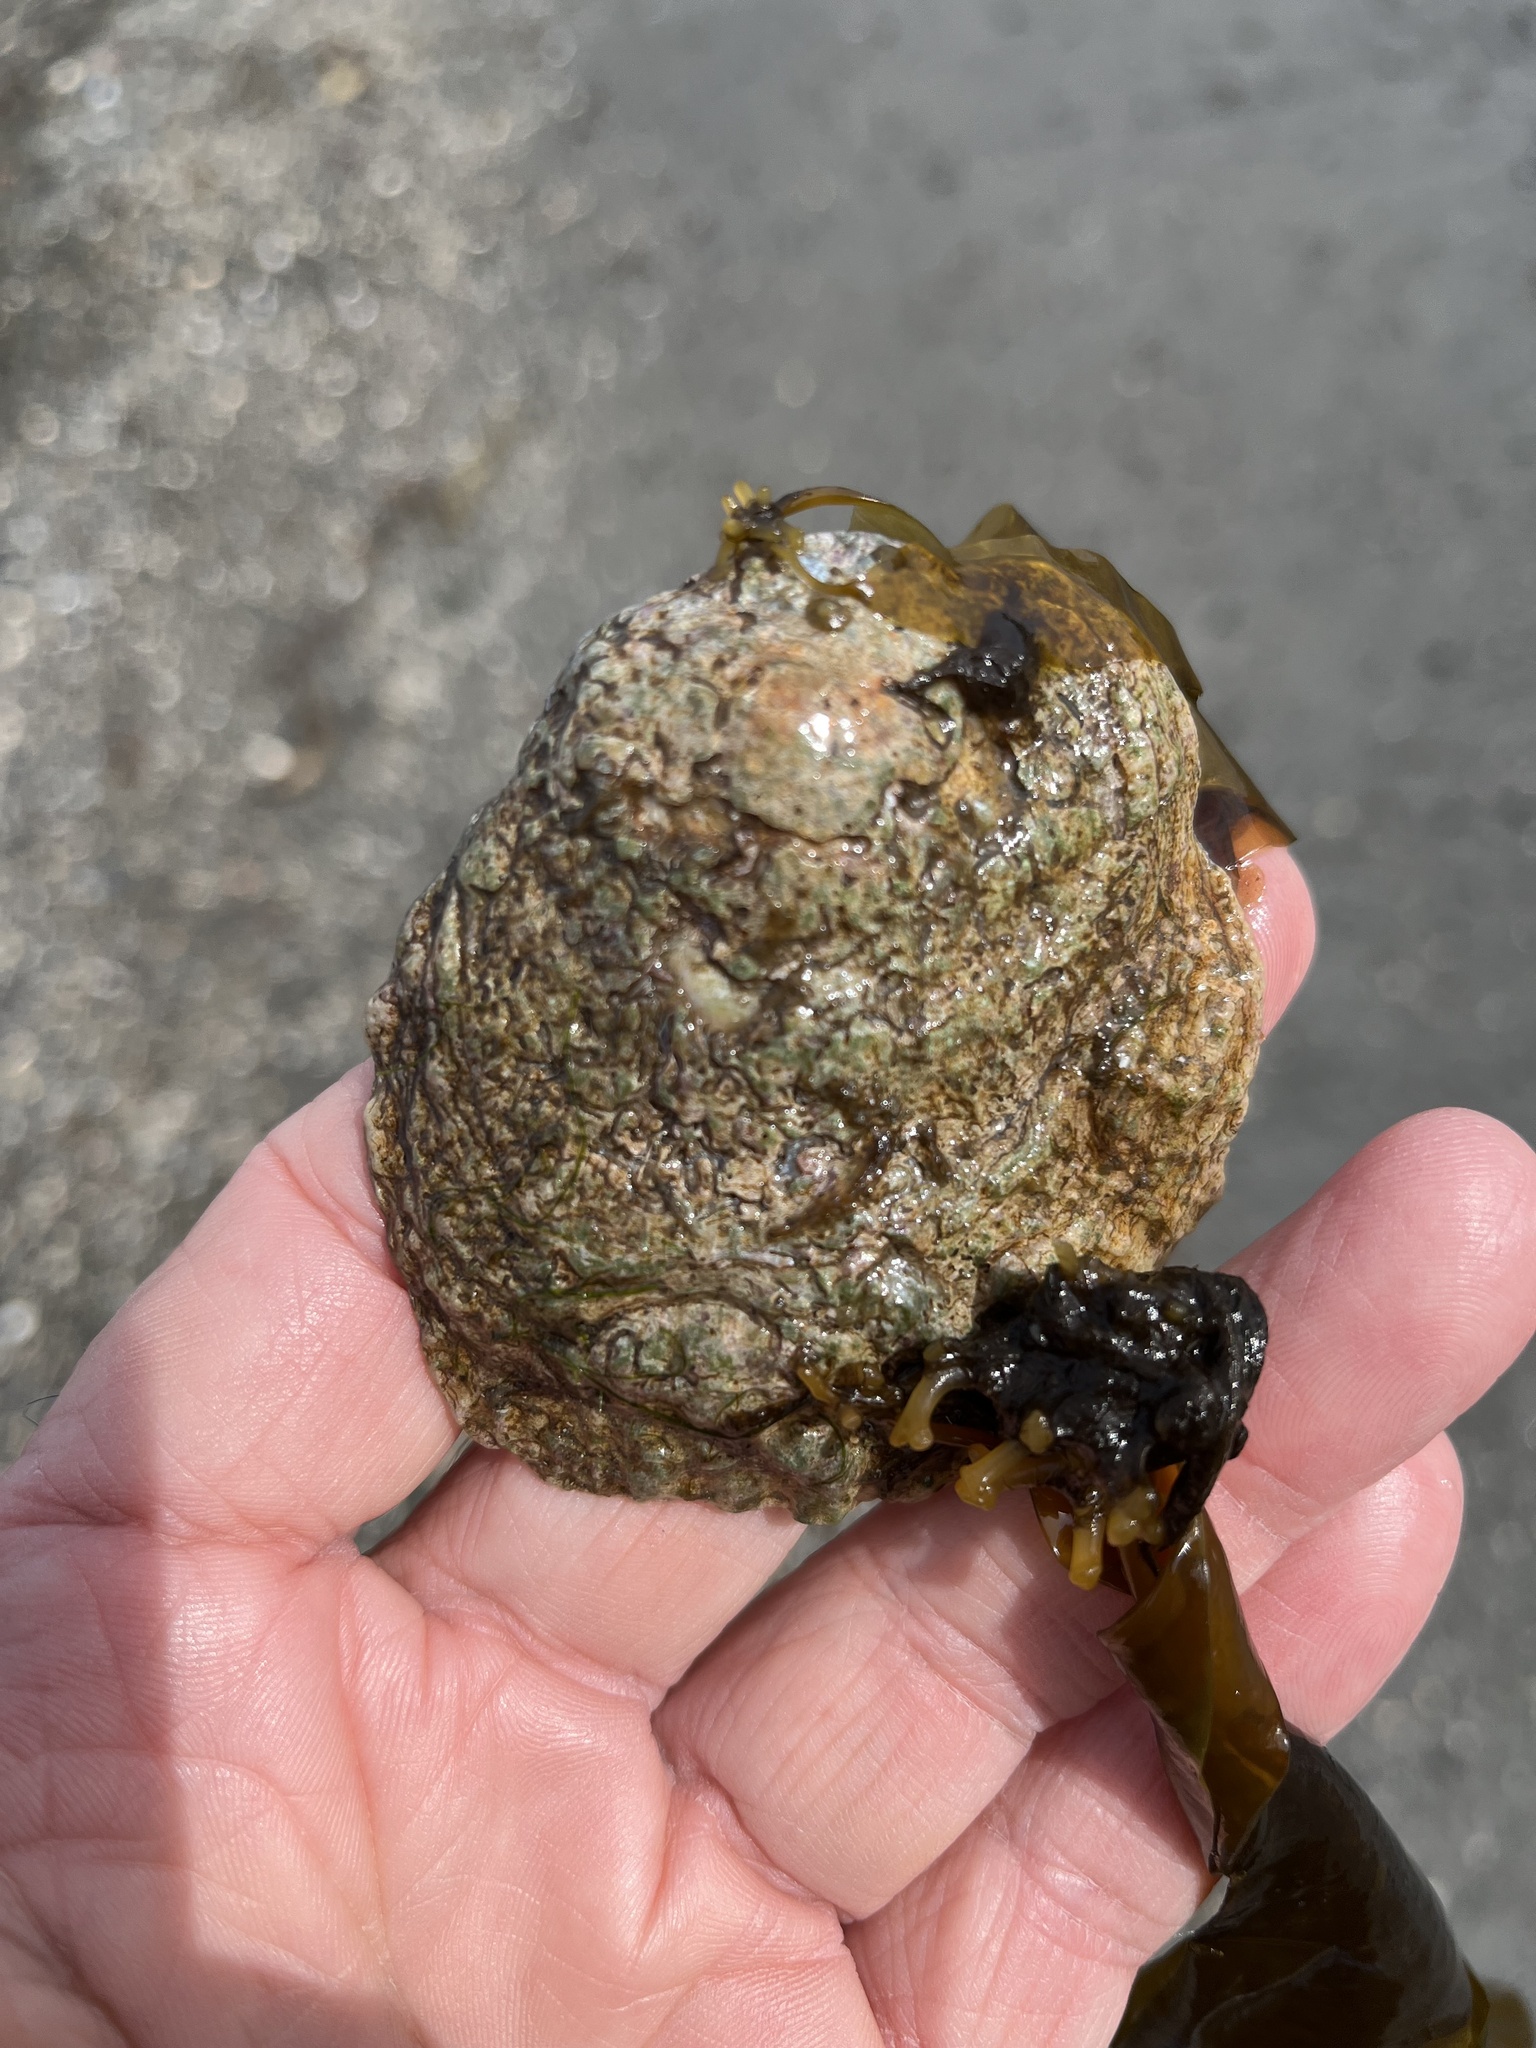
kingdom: Animalia
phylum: Mollusca
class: Bivalvia
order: Pectinida
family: Anomiidae
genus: Pododesmus
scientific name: Pododesmus macrochisma
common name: Alaska jingle
